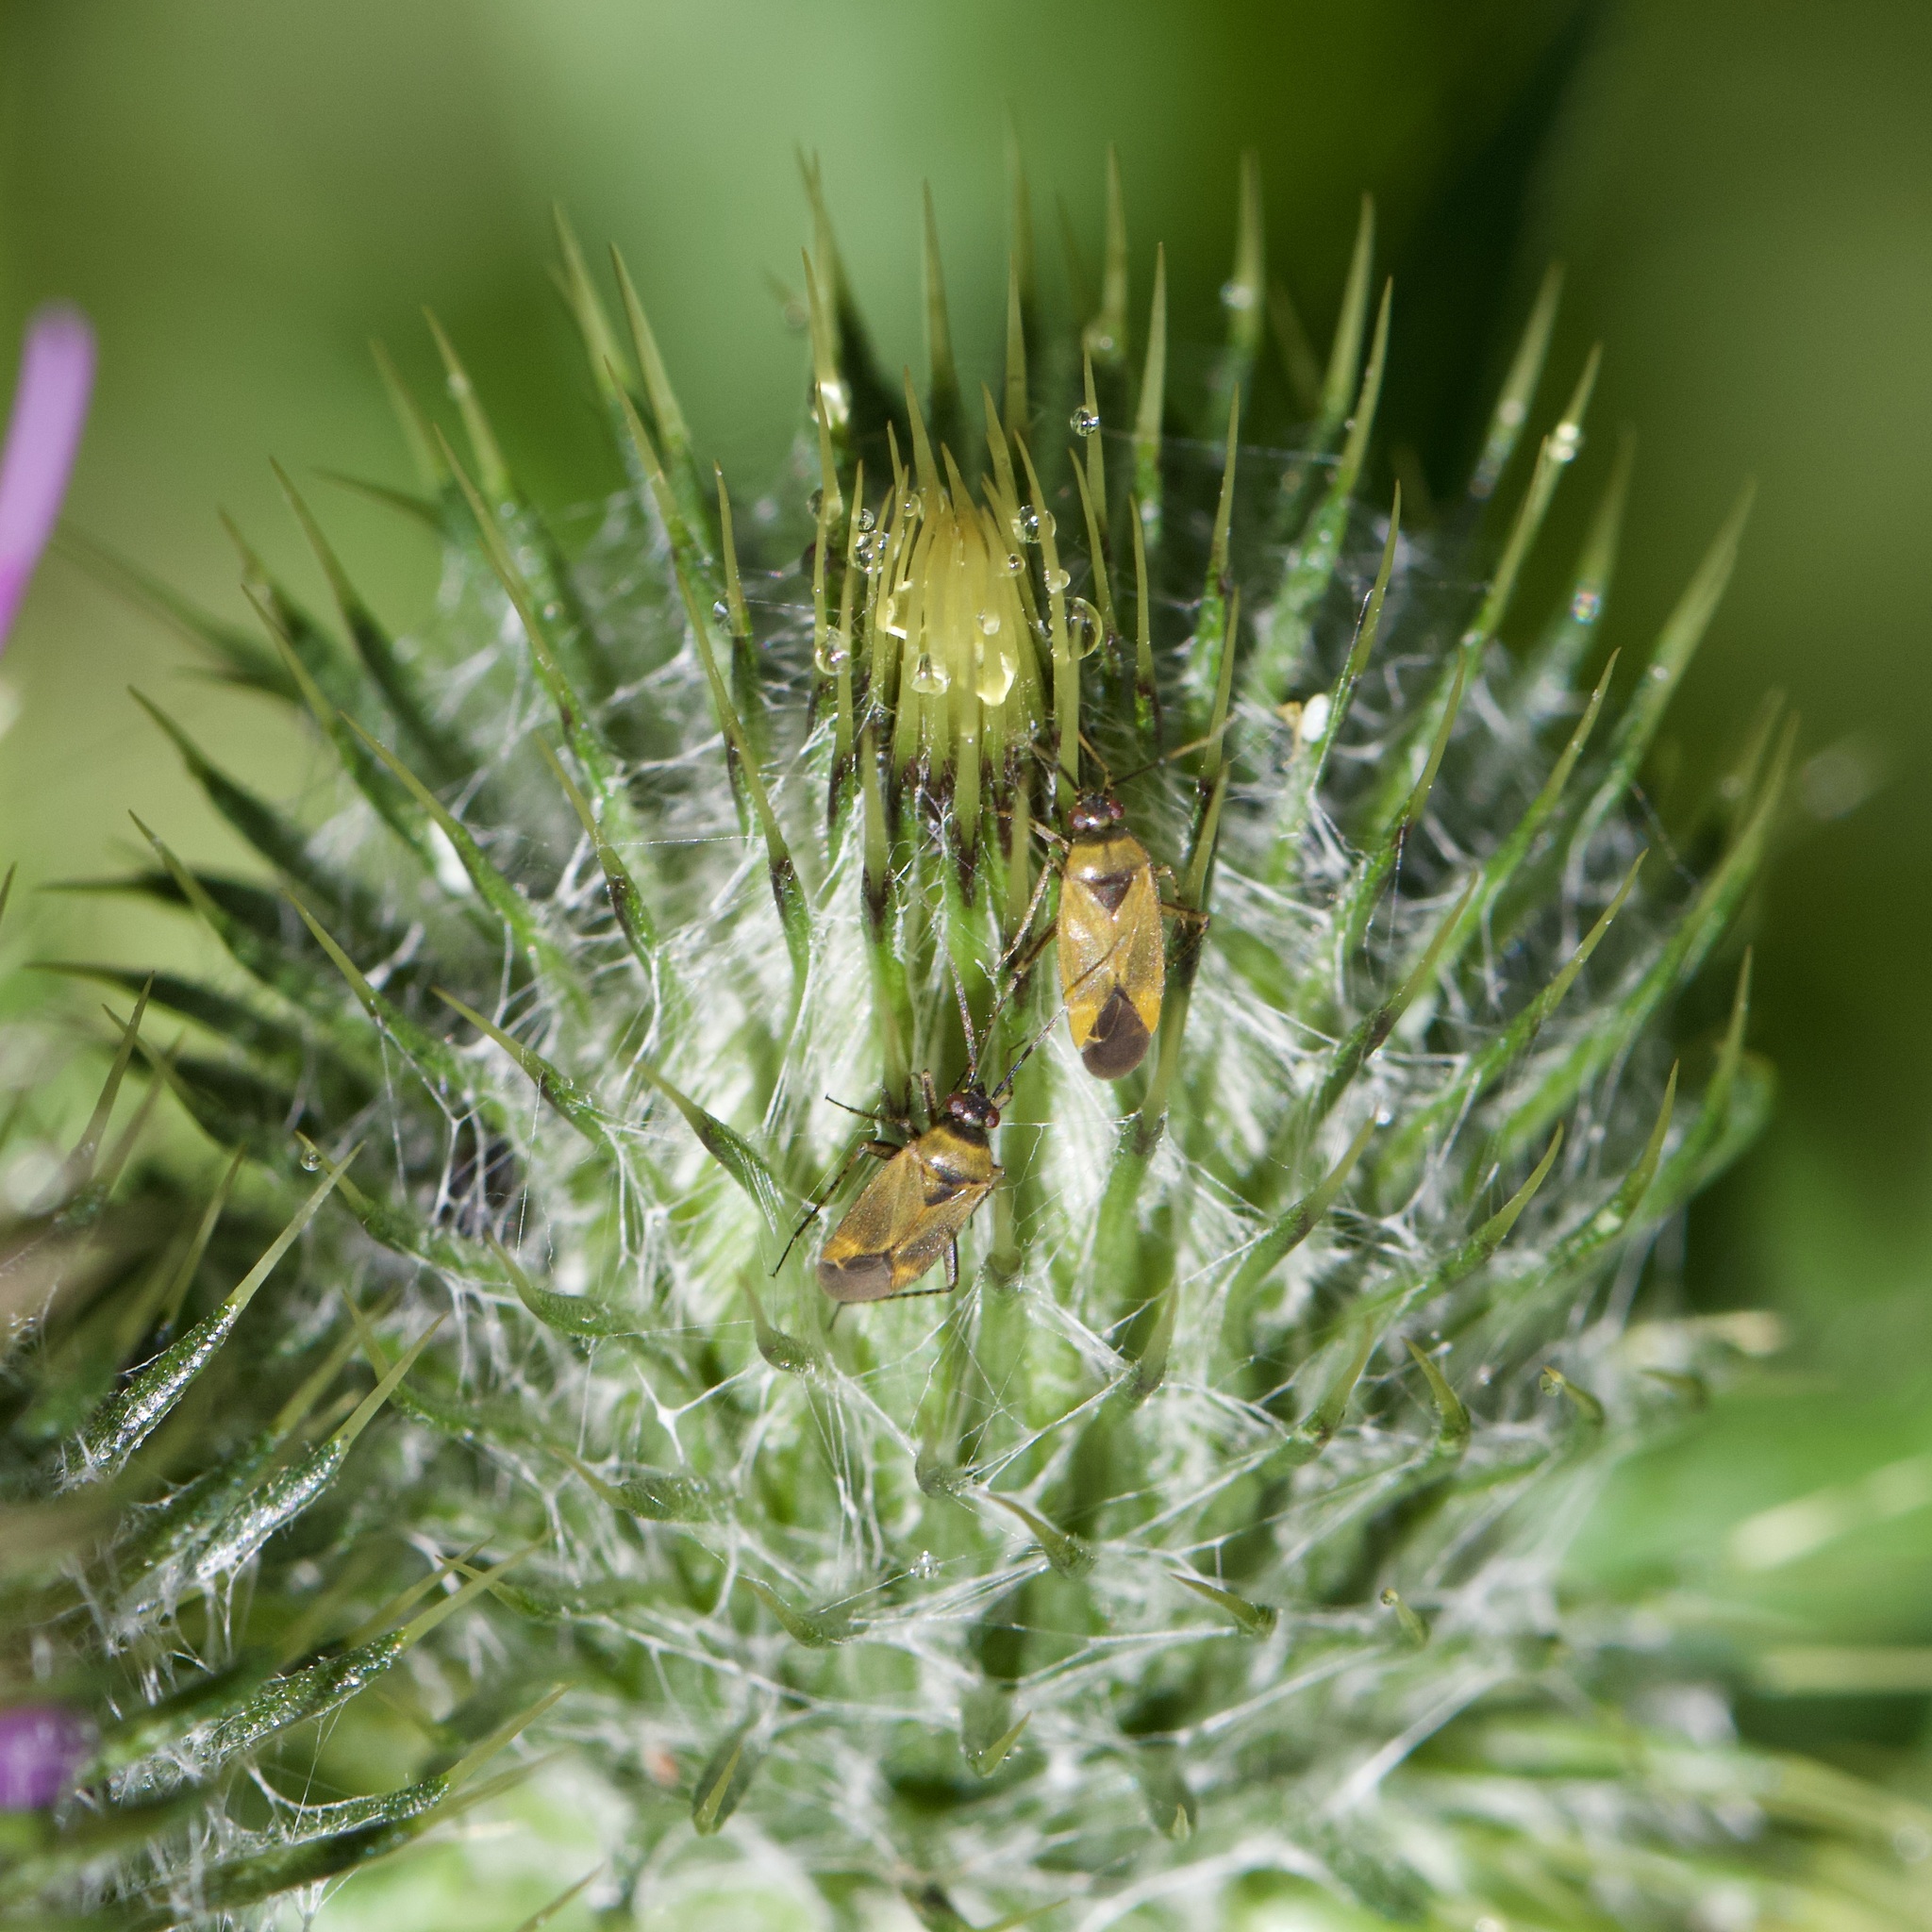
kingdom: Animalia
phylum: Arthropoda
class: Insecta
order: Hemiptera
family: Miridae
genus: Plagiognathus
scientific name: Plagiognathus arbustorum
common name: Plant bug
